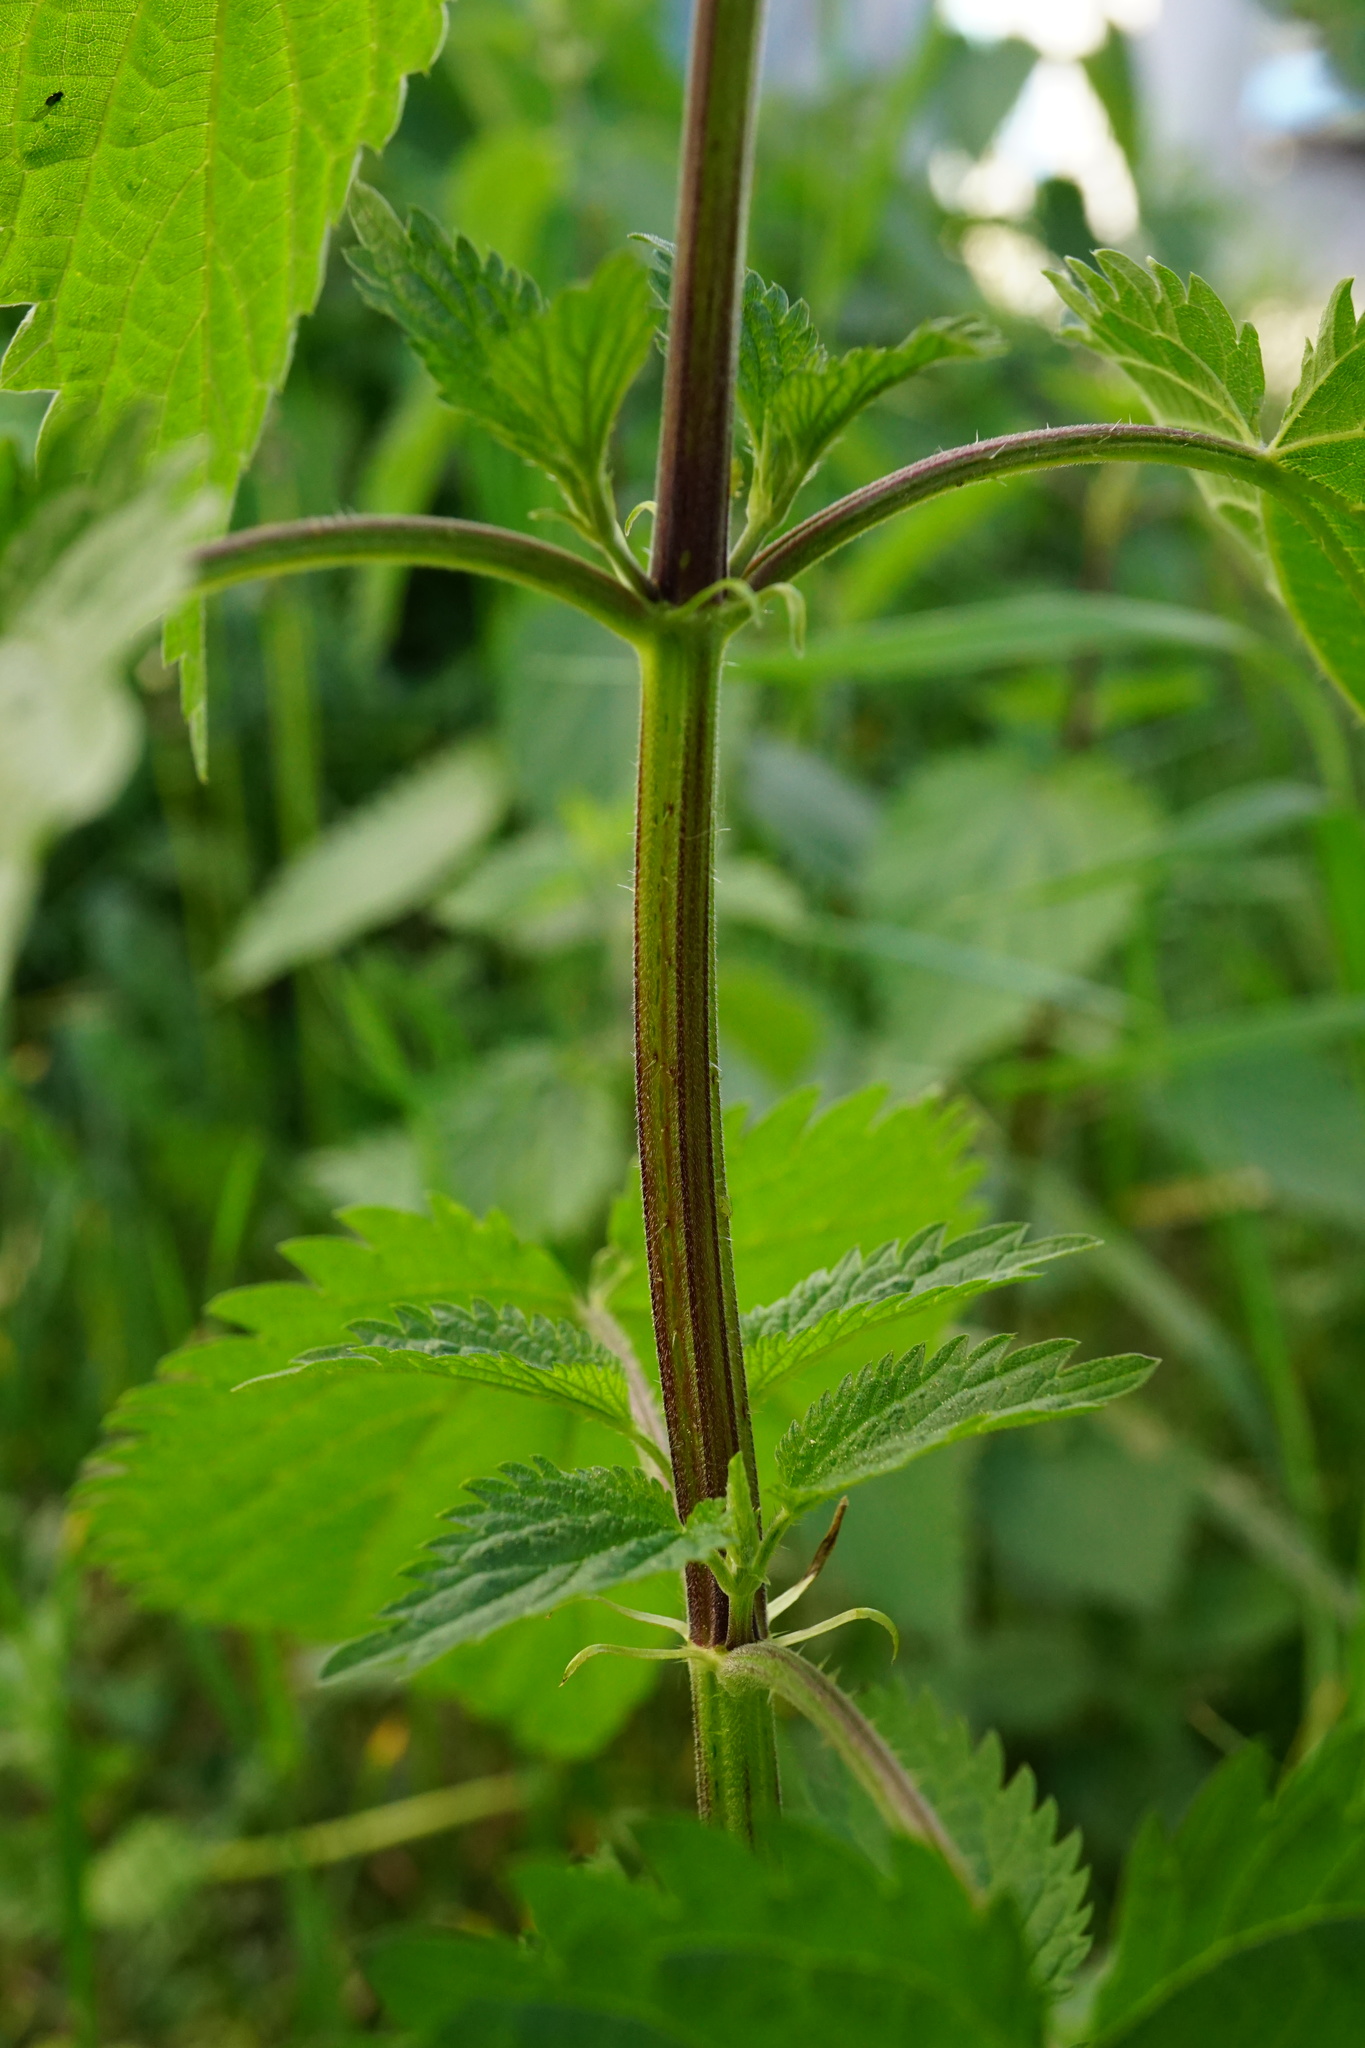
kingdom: Plantae
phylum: Tracheophyta
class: Magnoliopsida
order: Rosales
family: Urticaceae
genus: Urtica
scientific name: Urtica dioica
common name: Common nettle
